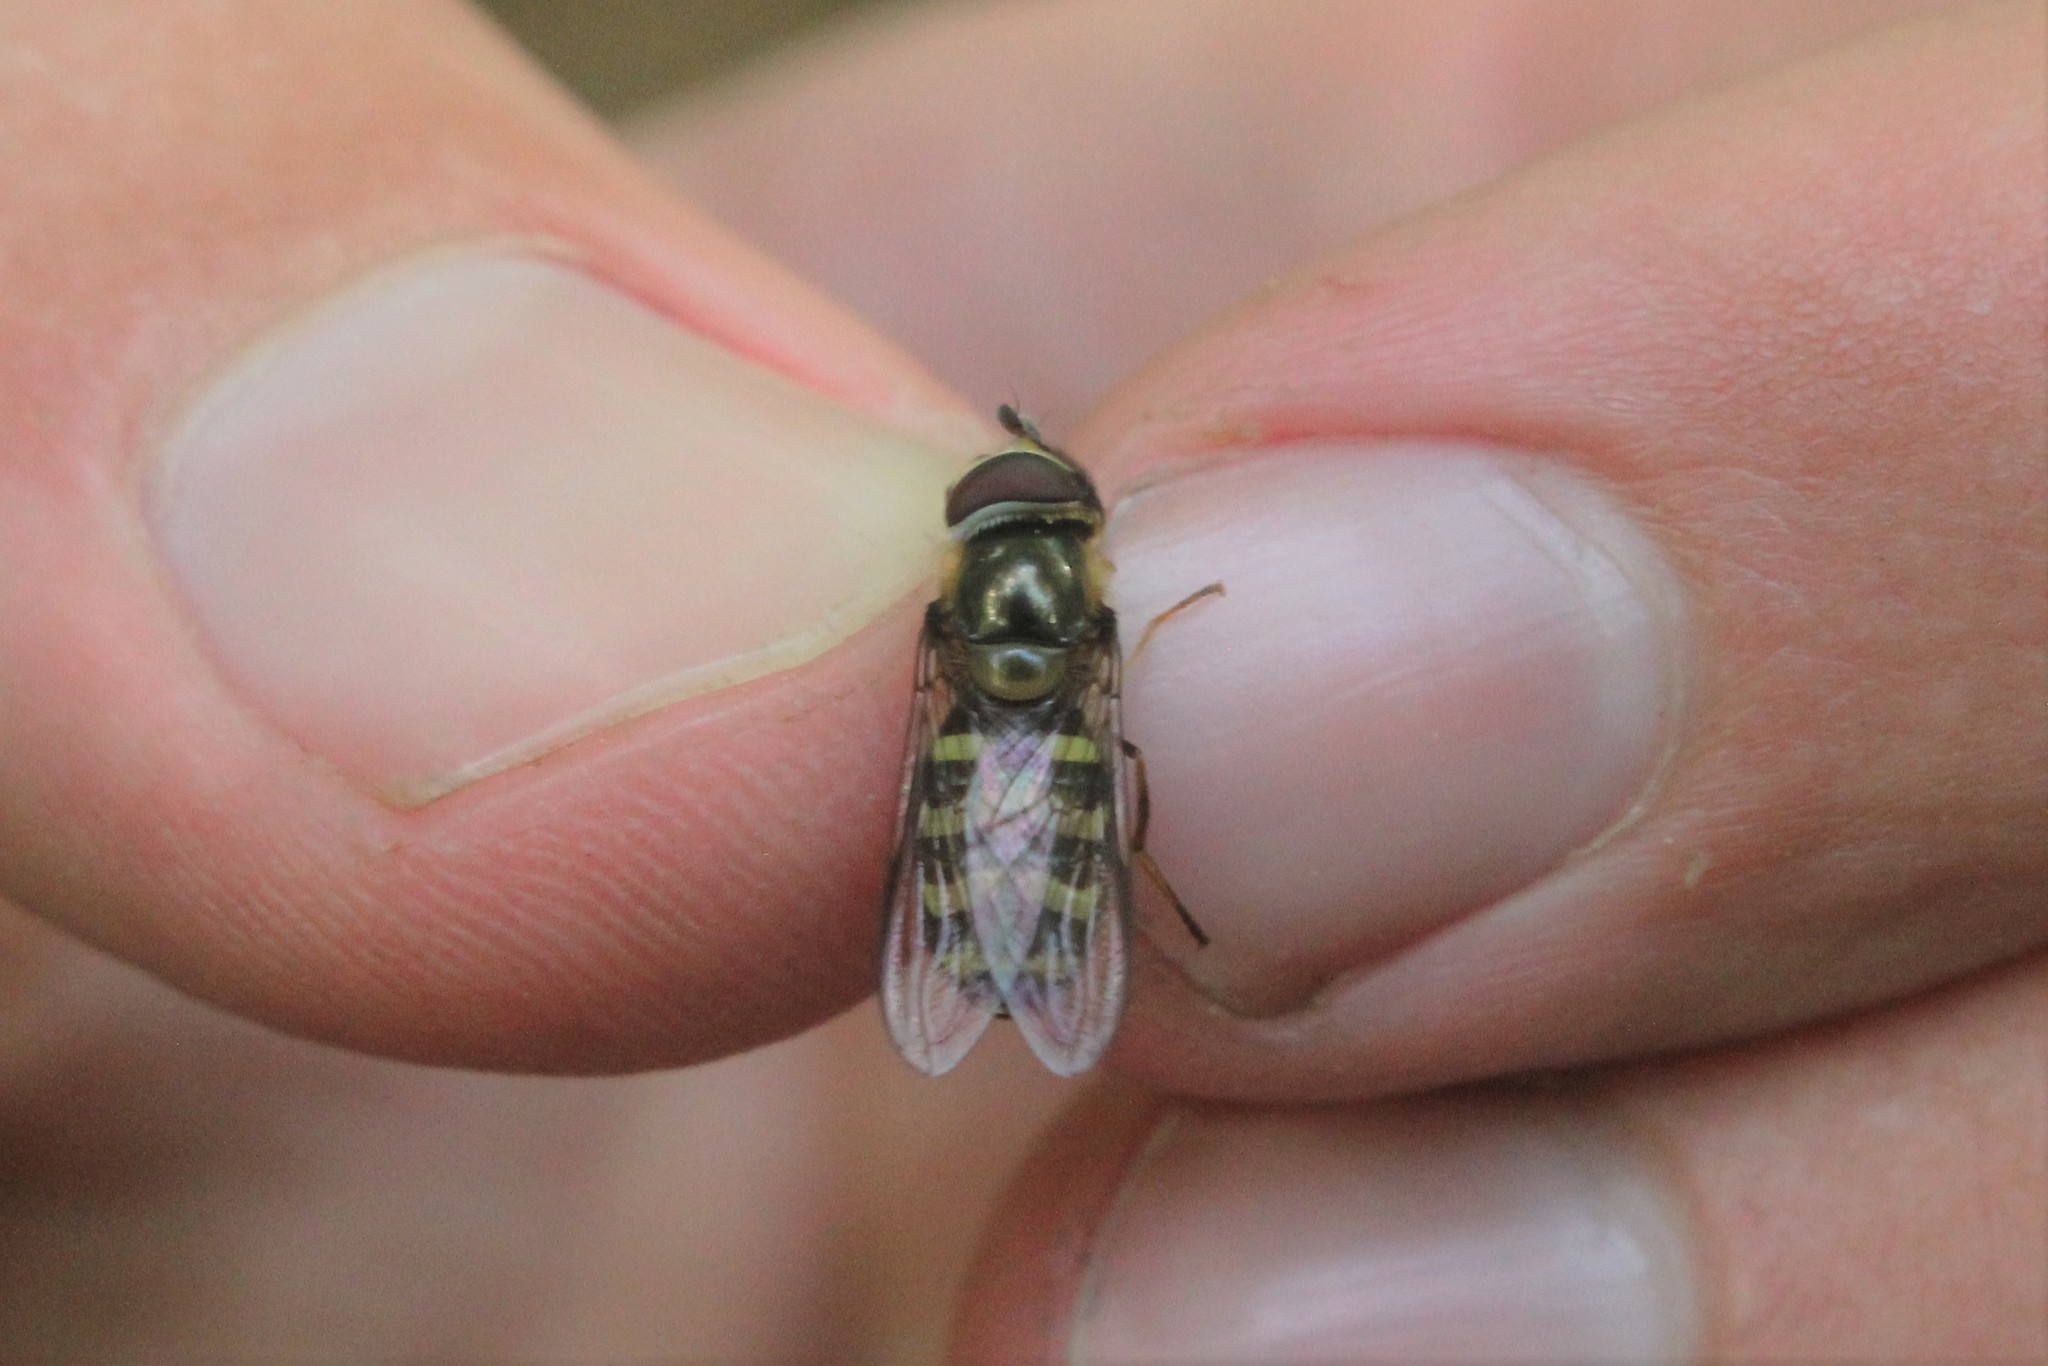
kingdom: Animalia
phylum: Arthropoda
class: Insecta
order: Diptera
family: Syrphidae
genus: Lapposyrphus
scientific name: Lapposyrphus lapponicus
